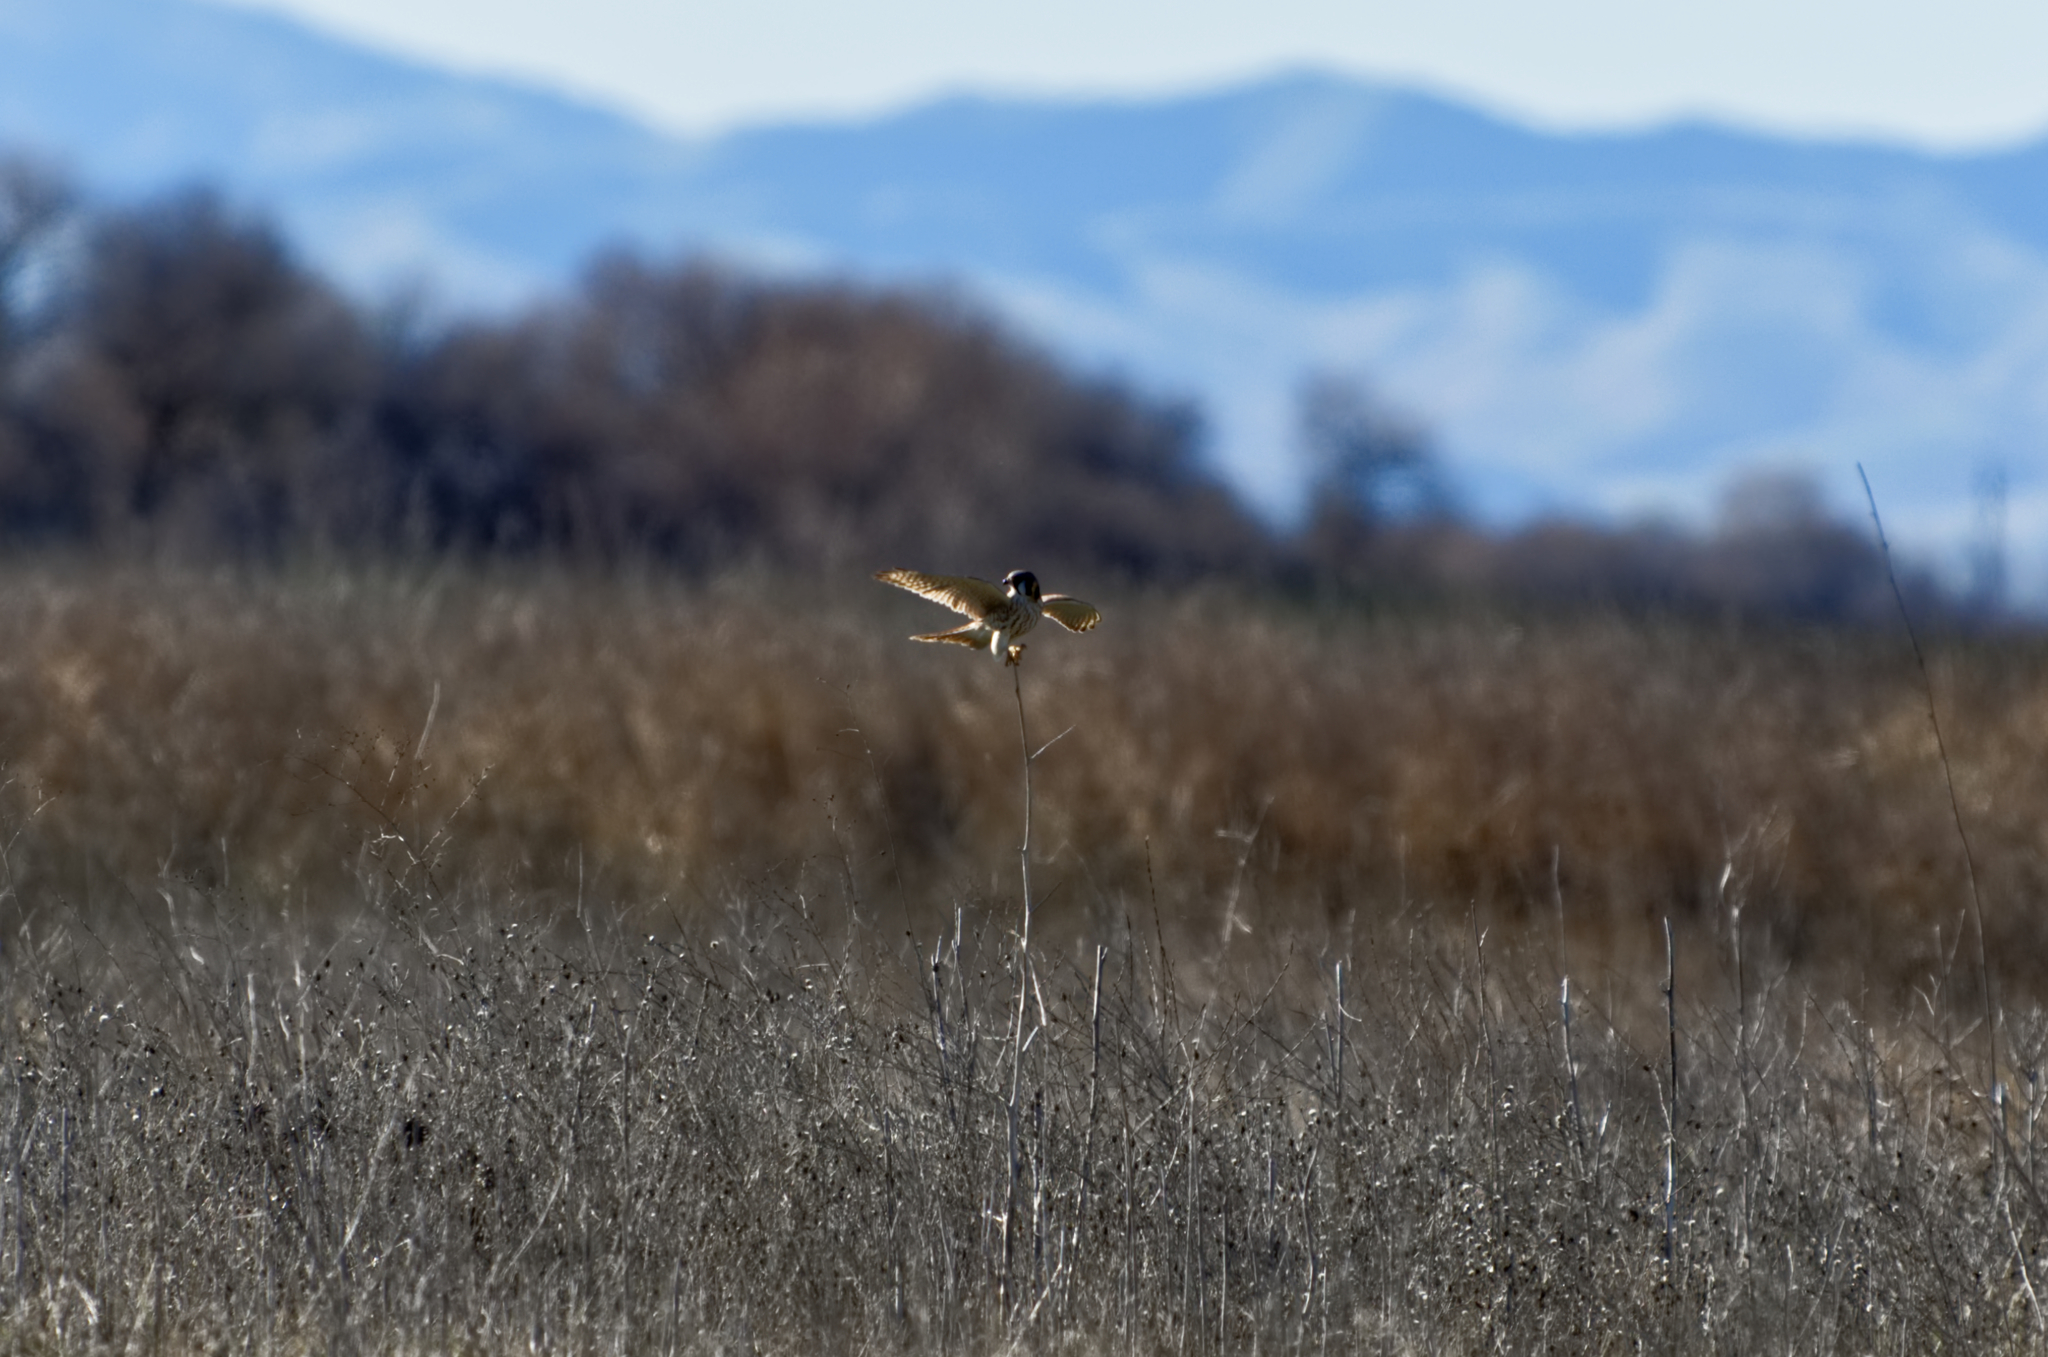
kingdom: Animalia
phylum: Chordata
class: Aves
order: Falconiformes
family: Falconidae
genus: Falco
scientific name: Falco sparverius
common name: American kestrel
